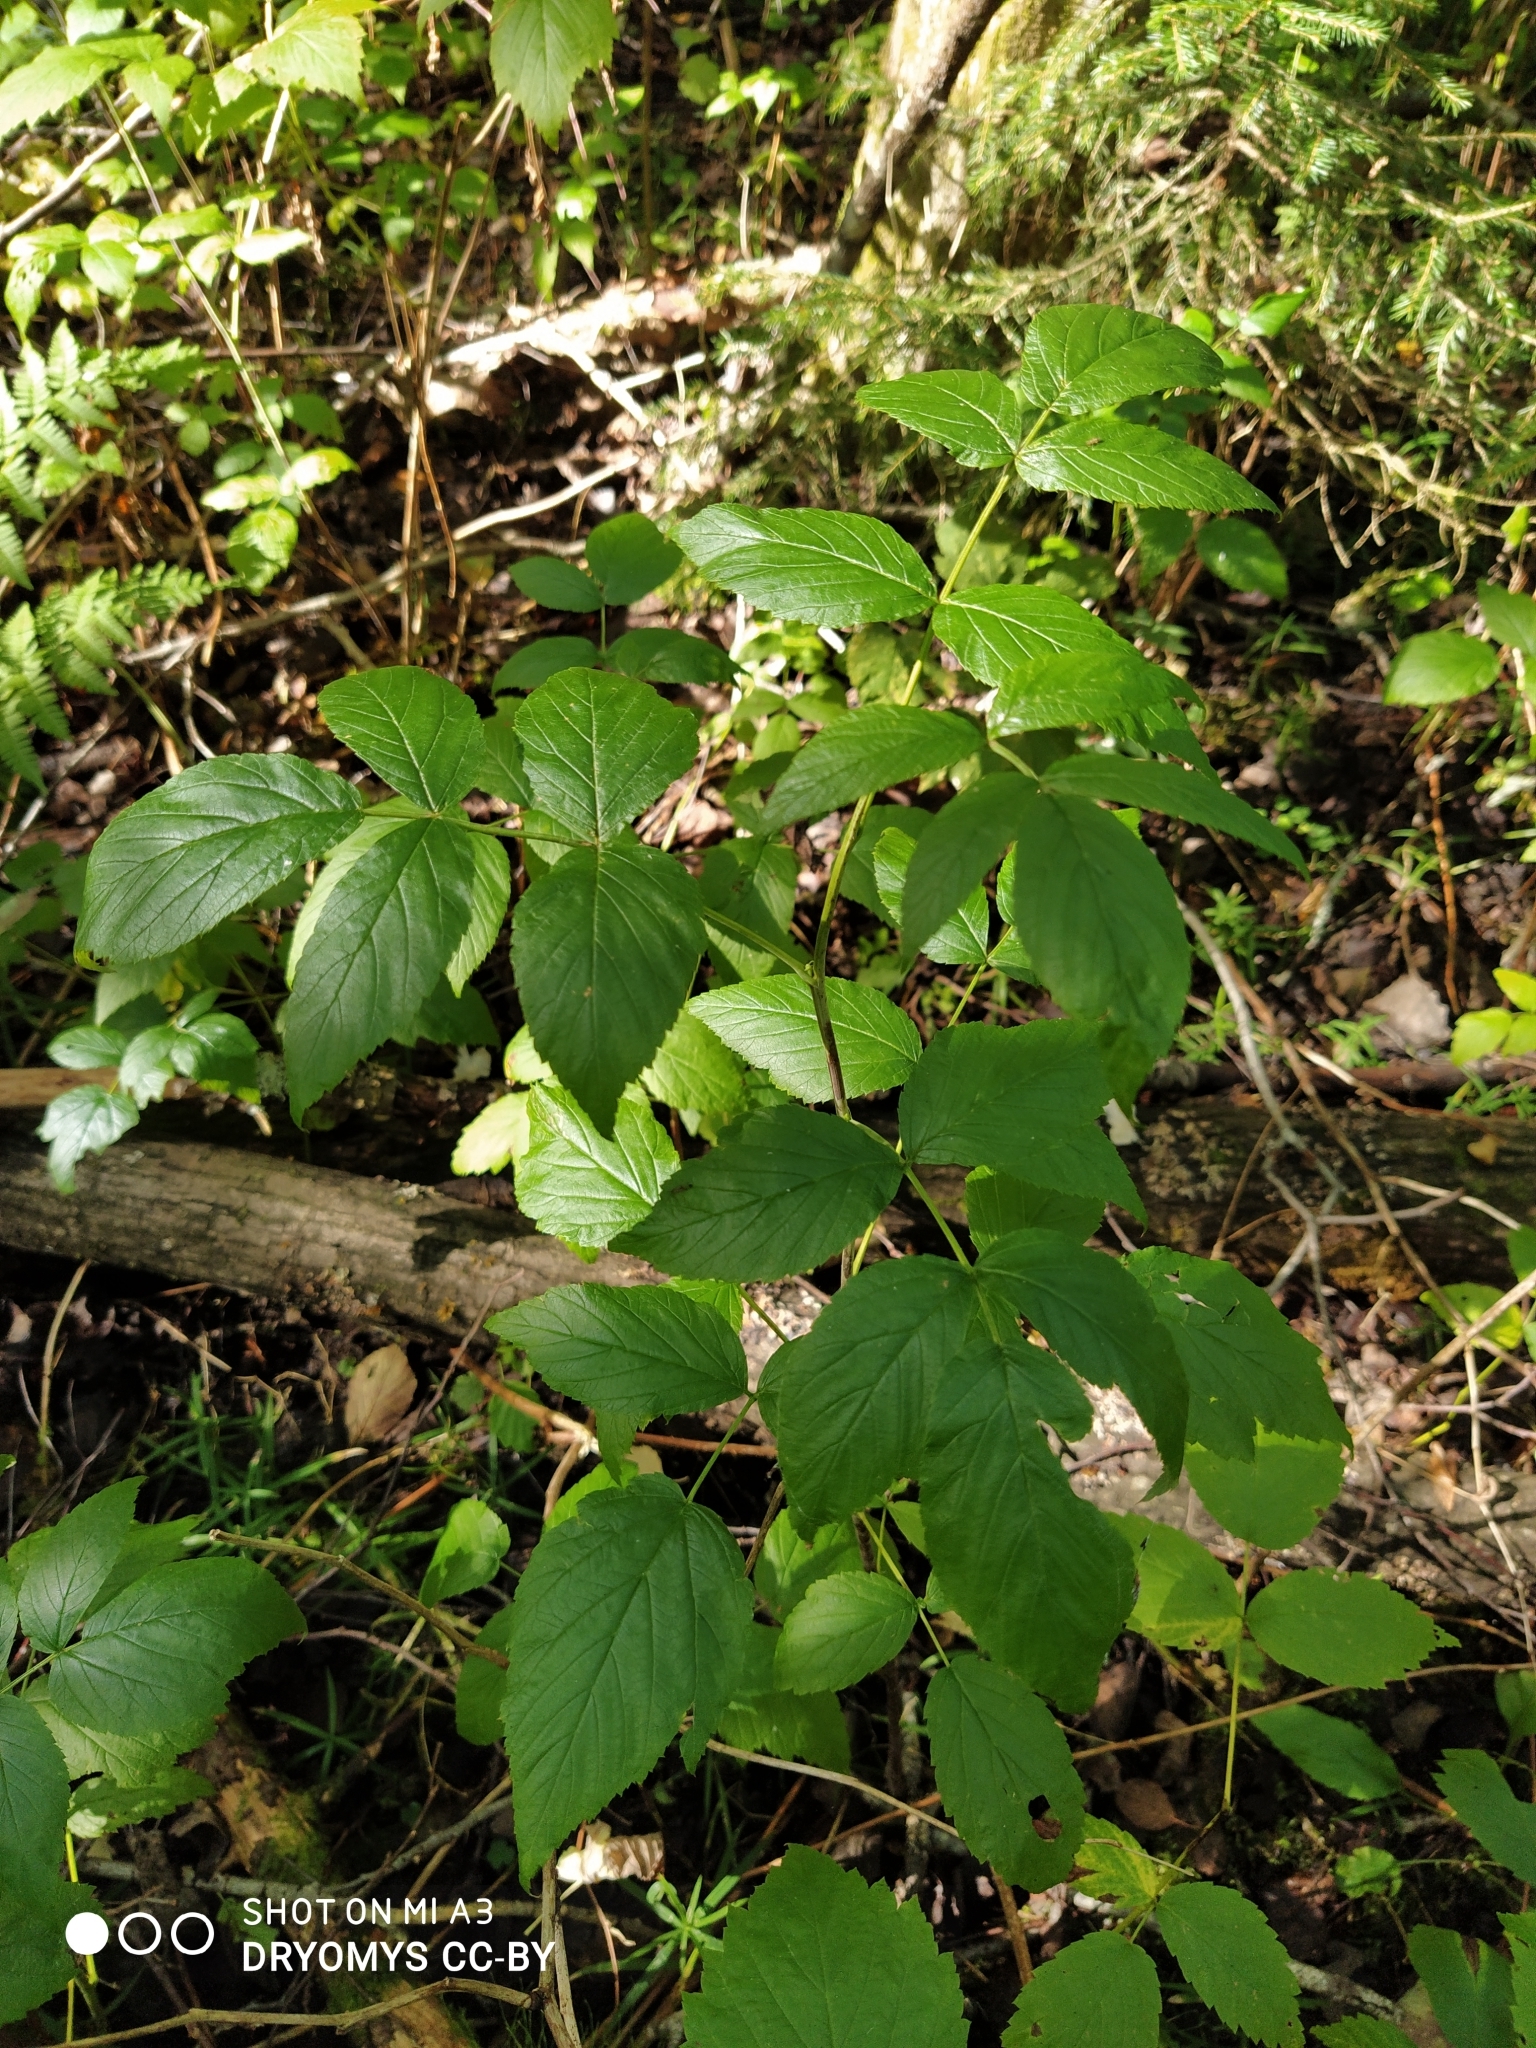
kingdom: Plantae
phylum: Tracheophyta
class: Magnoliopsida
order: Rosales
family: Rosaceae
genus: Rubus
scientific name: Rubus idaeus
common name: Raspberry
